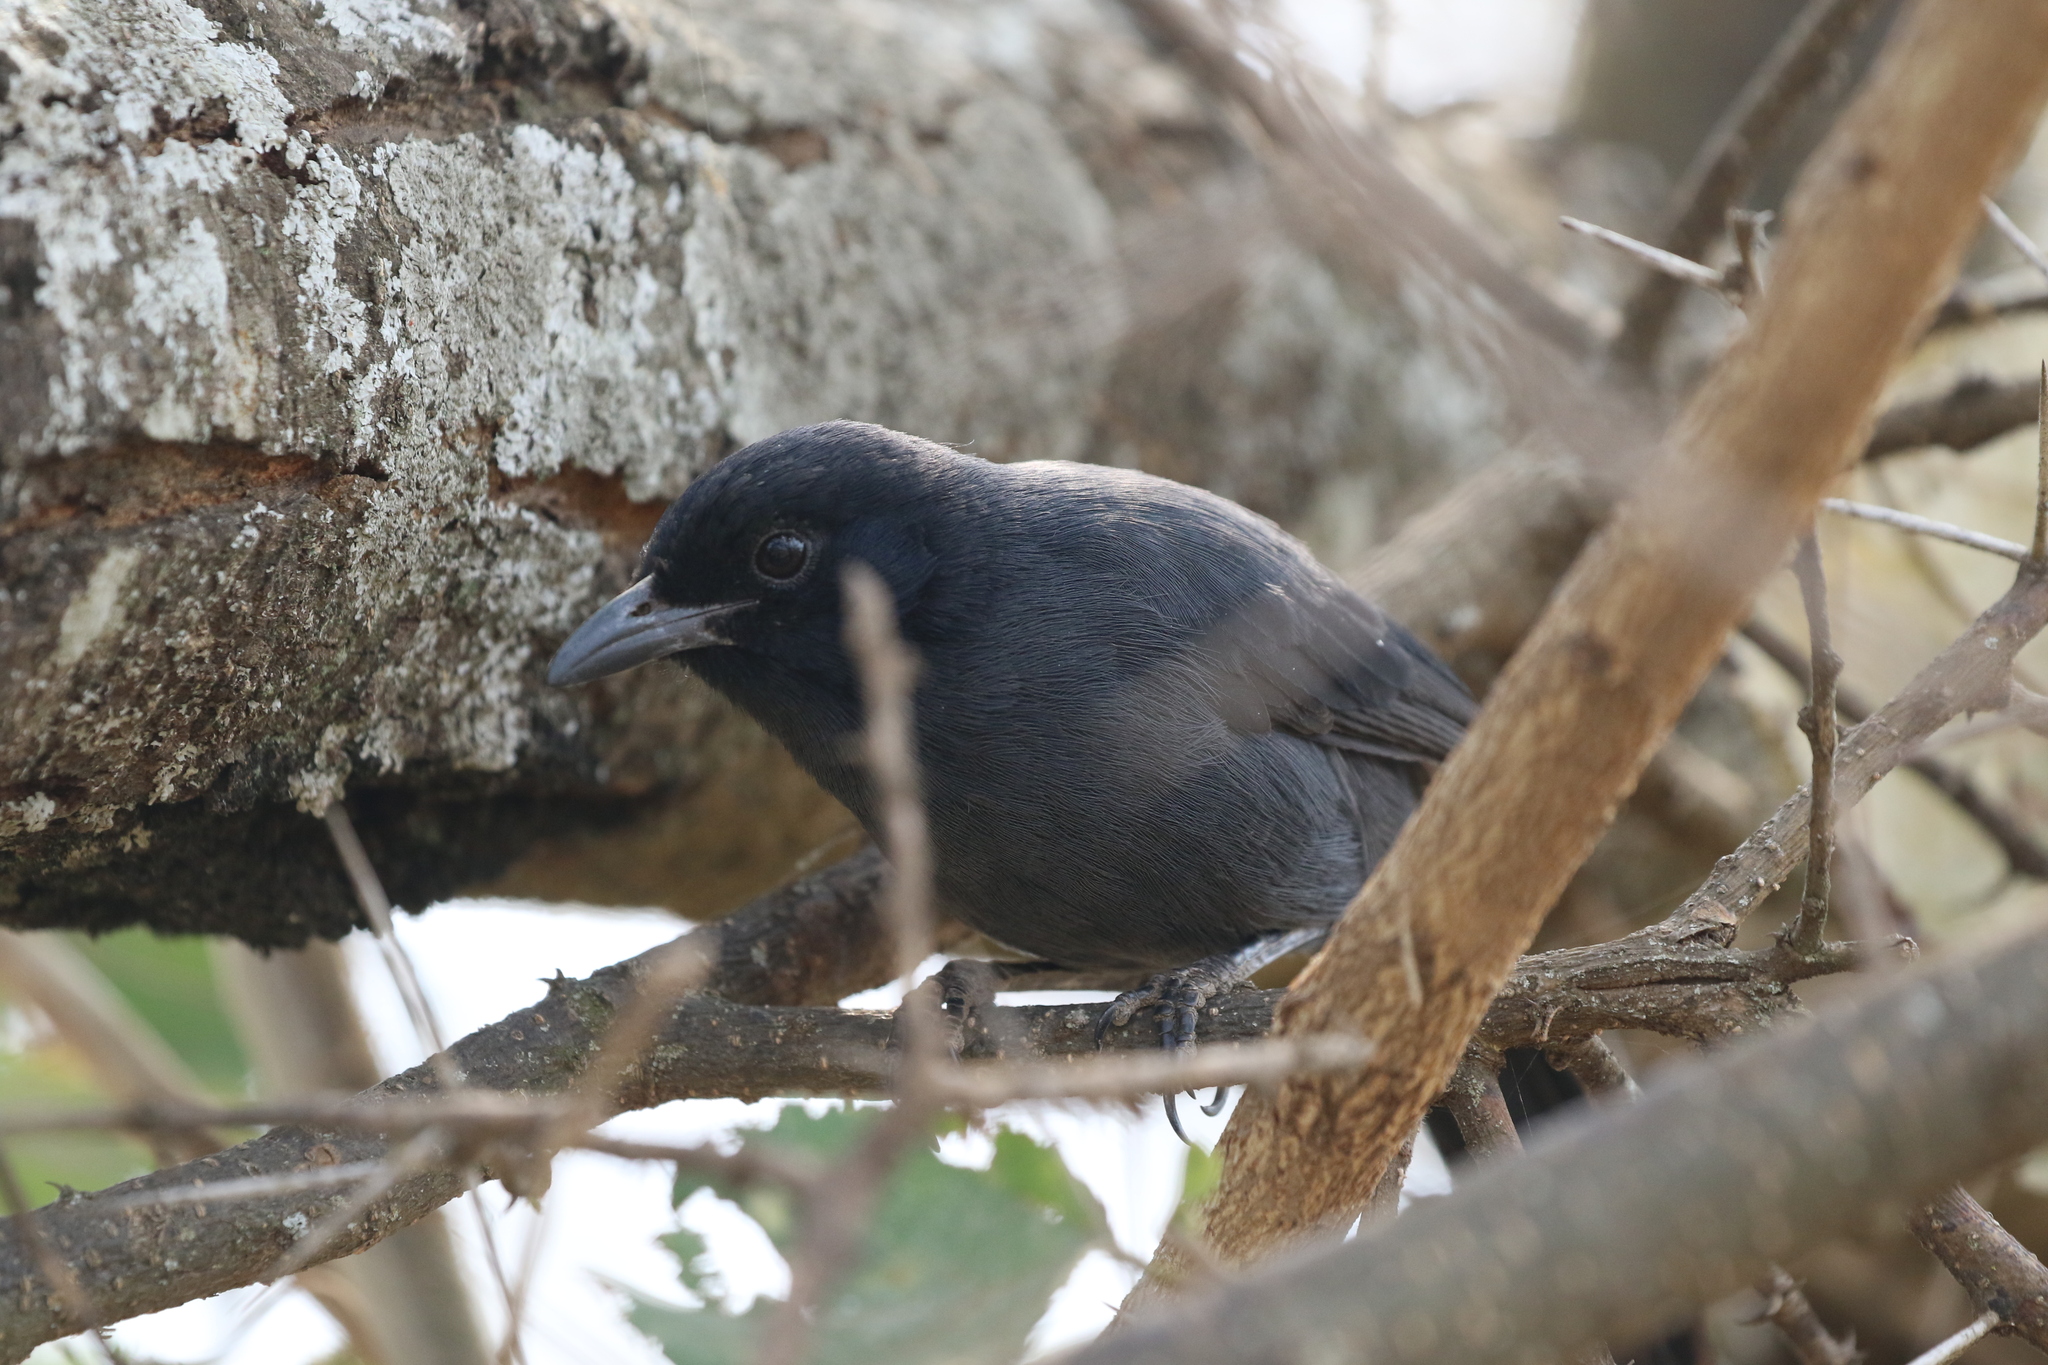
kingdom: Animalia
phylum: Chordata
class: Aves
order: Passeriformes
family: Malaconotidae
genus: Laniarius
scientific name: Laniarius funebris
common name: Slate-colored boubou
